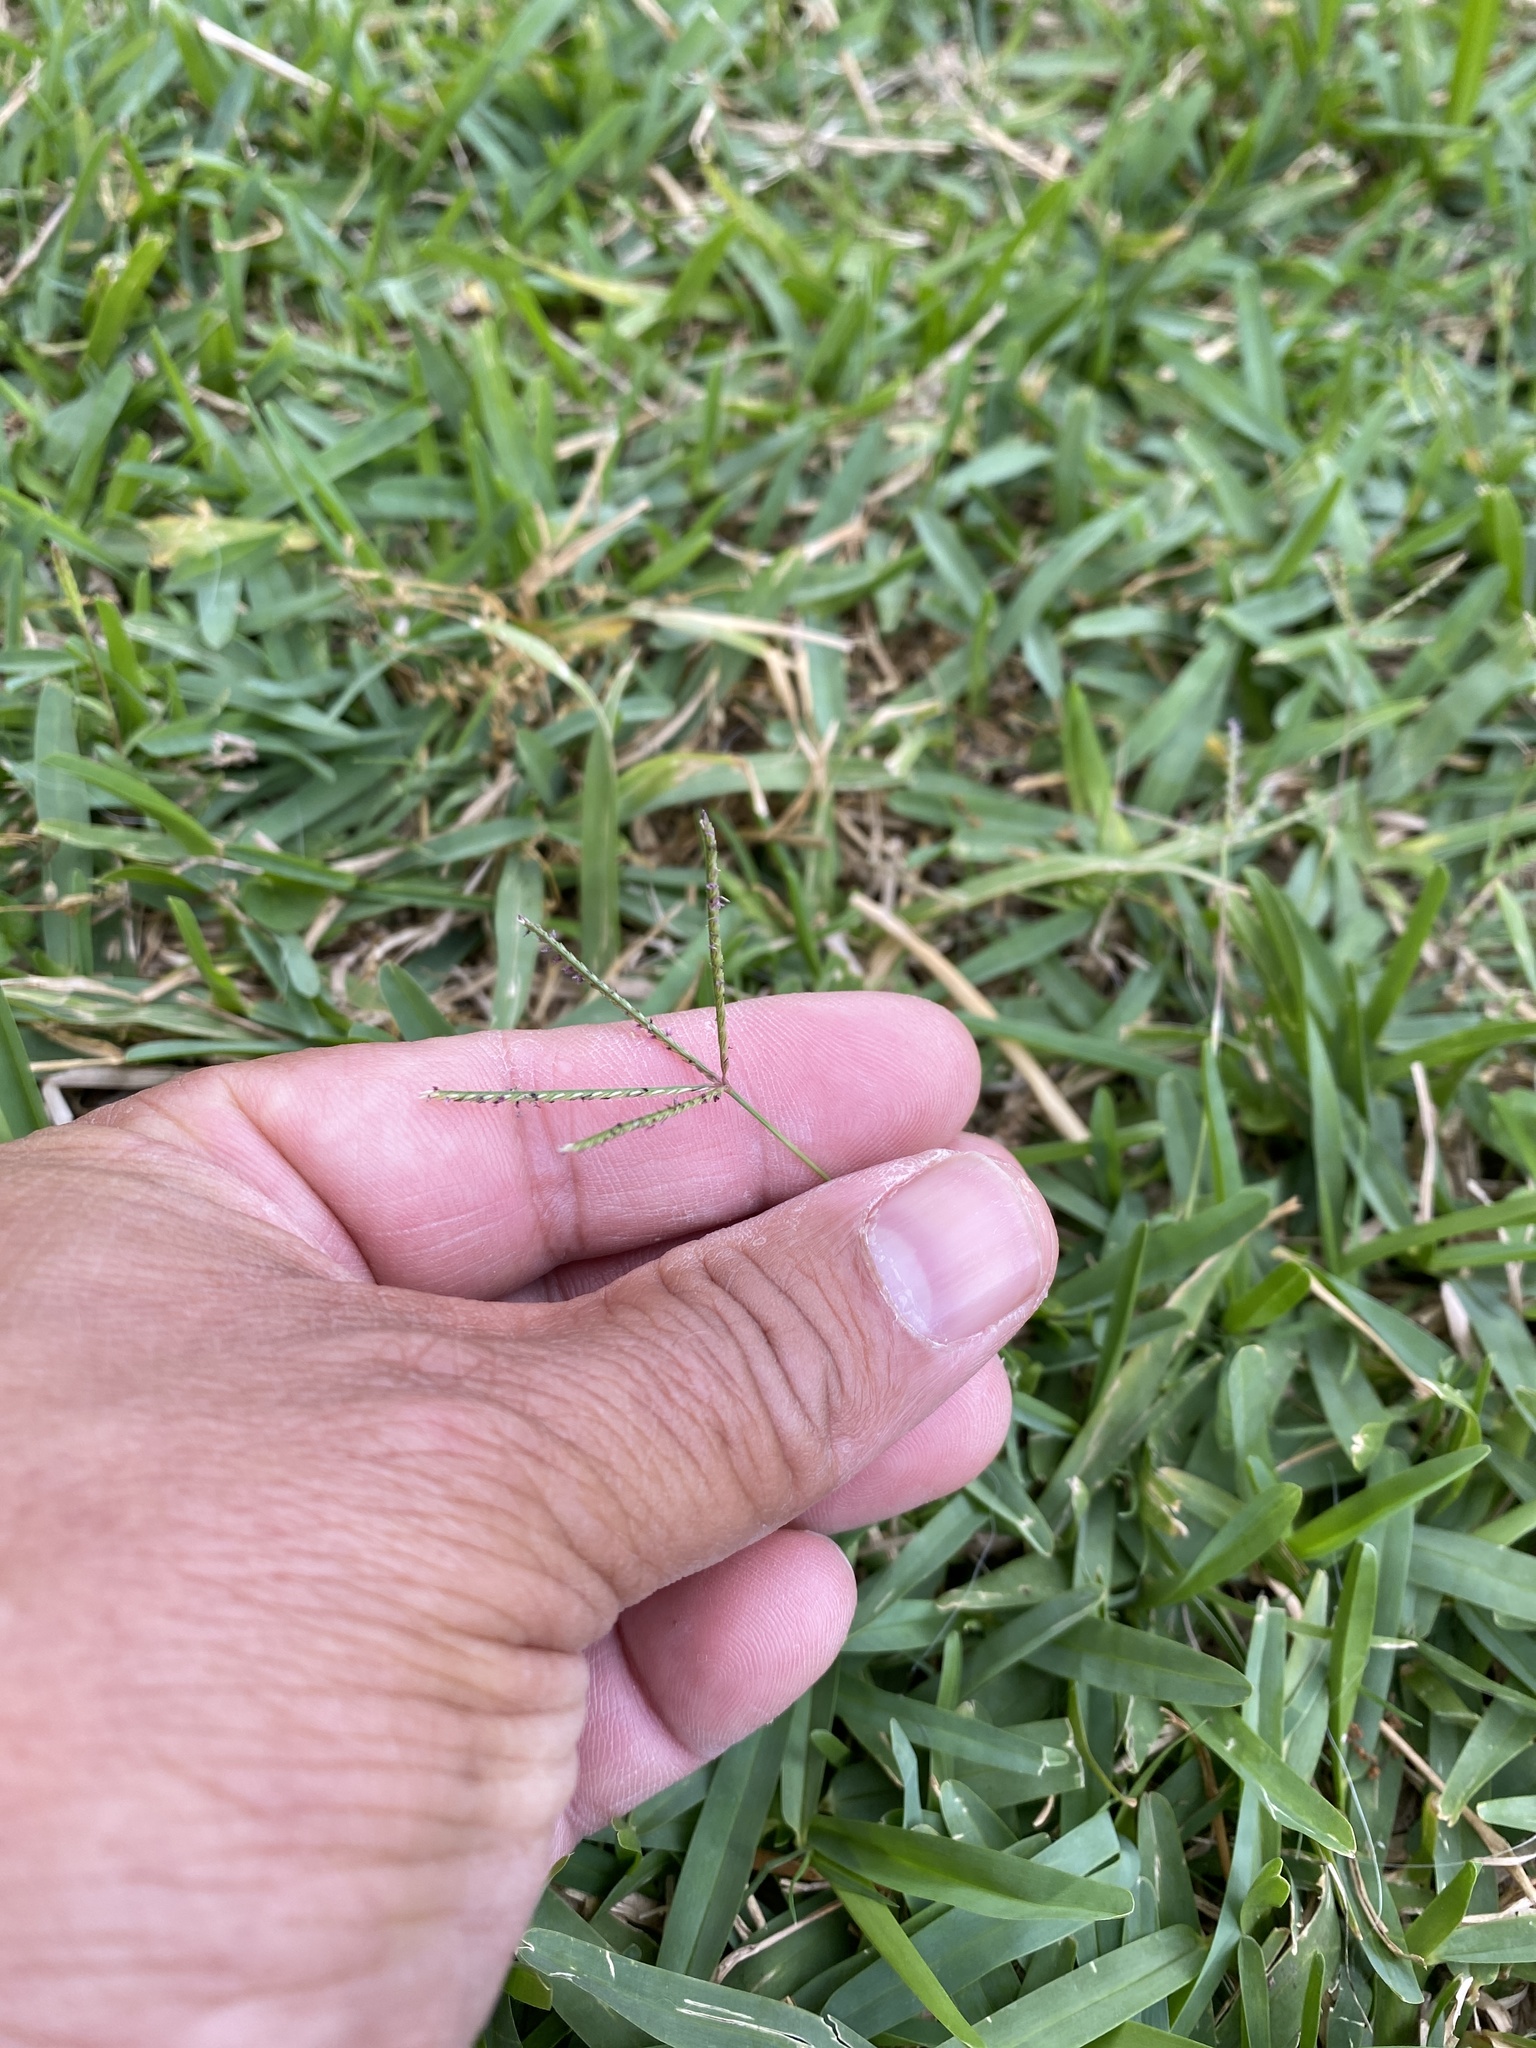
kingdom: Plantae
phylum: Tracheophyta
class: Liliopsida
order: Poales
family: Poaceae
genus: Cynodon
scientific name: Cynodon dactylon
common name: Bermuda grass
